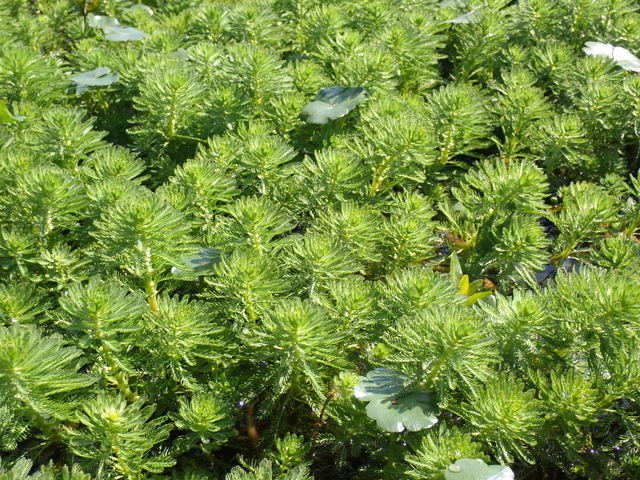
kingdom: Plantae
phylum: Tracheophyta
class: Magnoliopsida
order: Saxifragales
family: Haloragaceae
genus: Myriophyllum
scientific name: Myriophyllum aquaticum
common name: Parrot's feather
